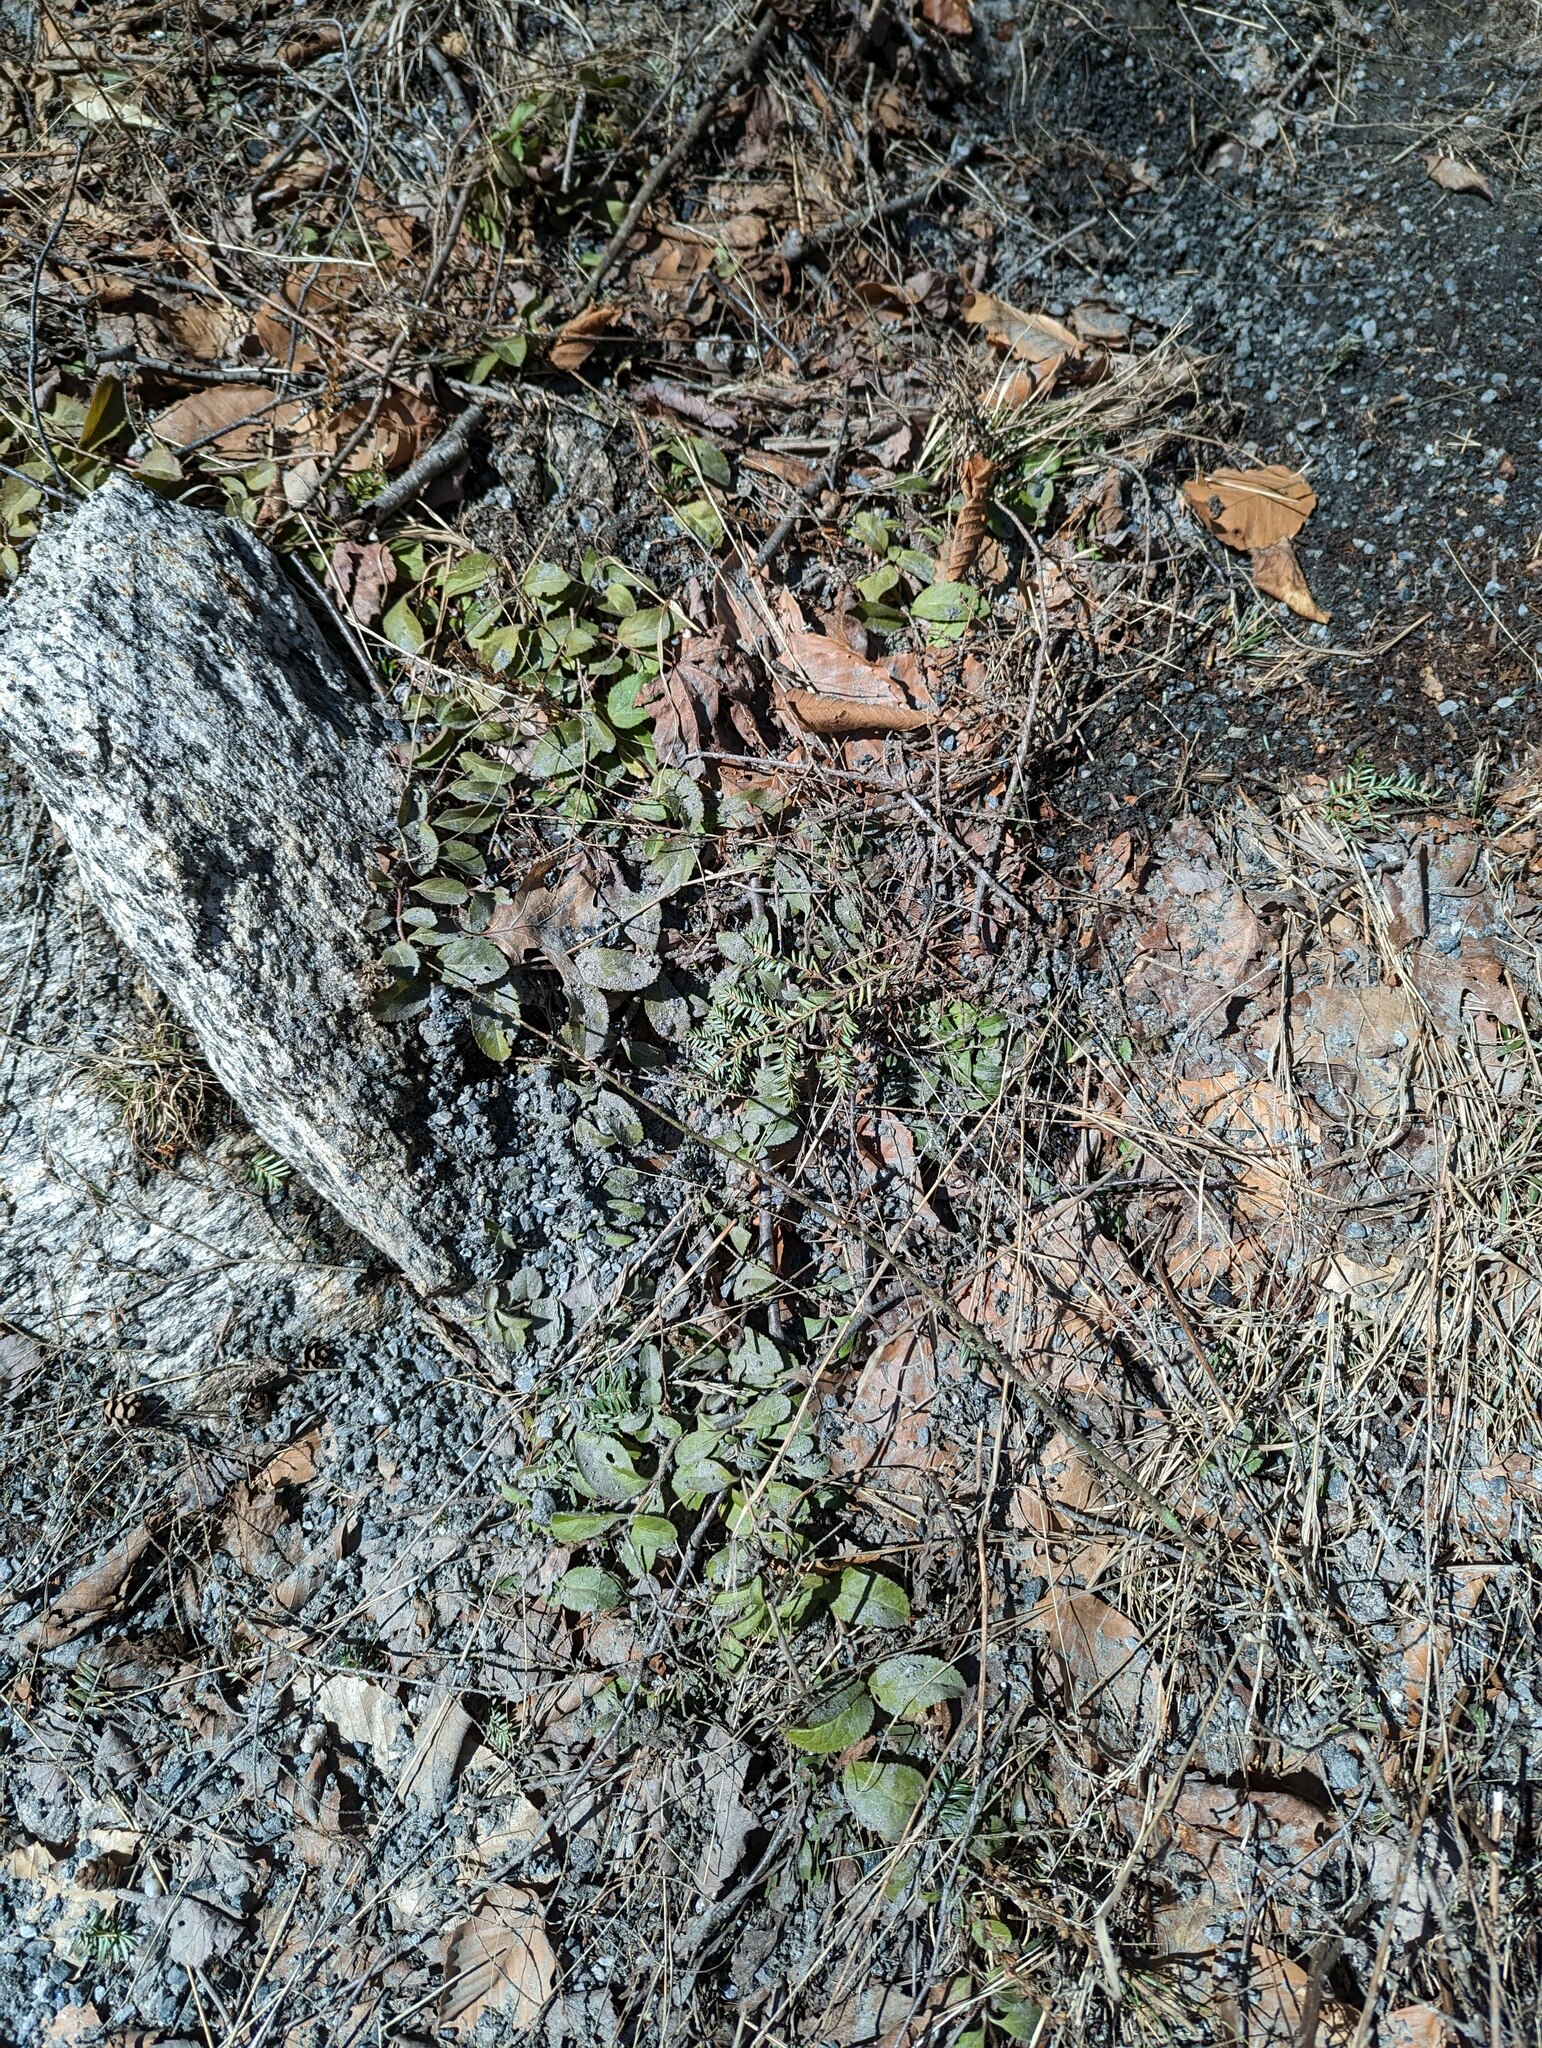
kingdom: Plantae
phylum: Tracheophyta
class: Magnoliopsida
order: Lamiales
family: Plantaginaceae
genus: Veronica
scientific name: Veronica officinalis
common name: Common speedwell
